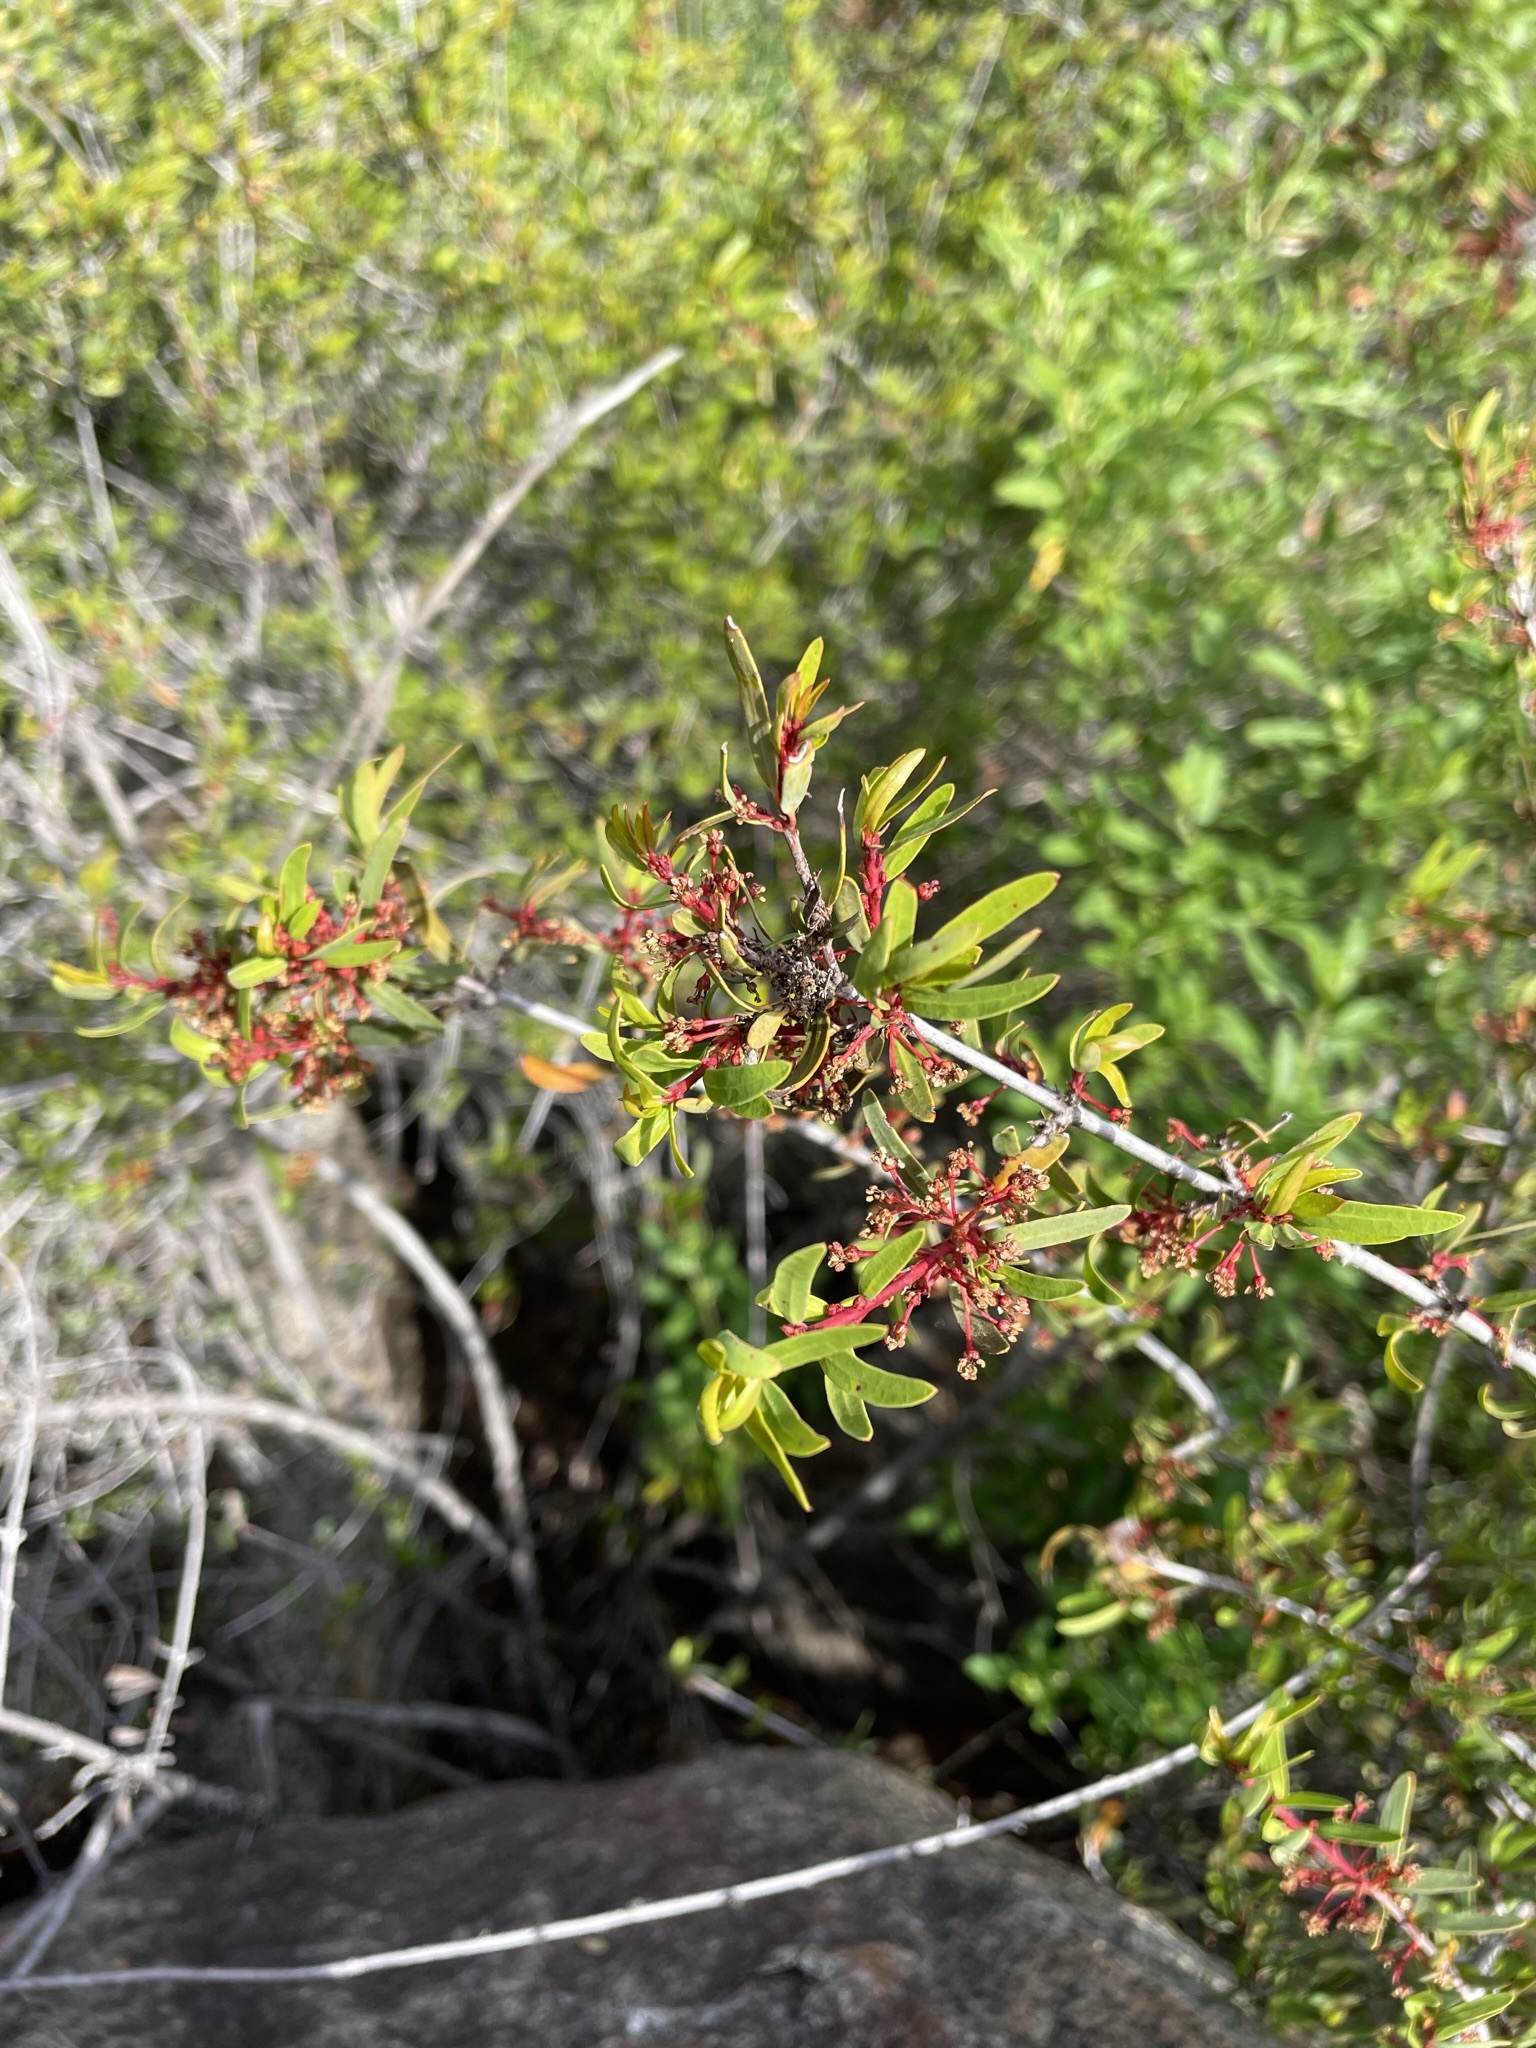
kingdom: Plantae
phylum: Tracheophyta
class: Magnoliopsida
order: Malpighiales
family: Picrodendraceae
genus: Tetracoccus
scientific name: Tetracoccus dioicus
